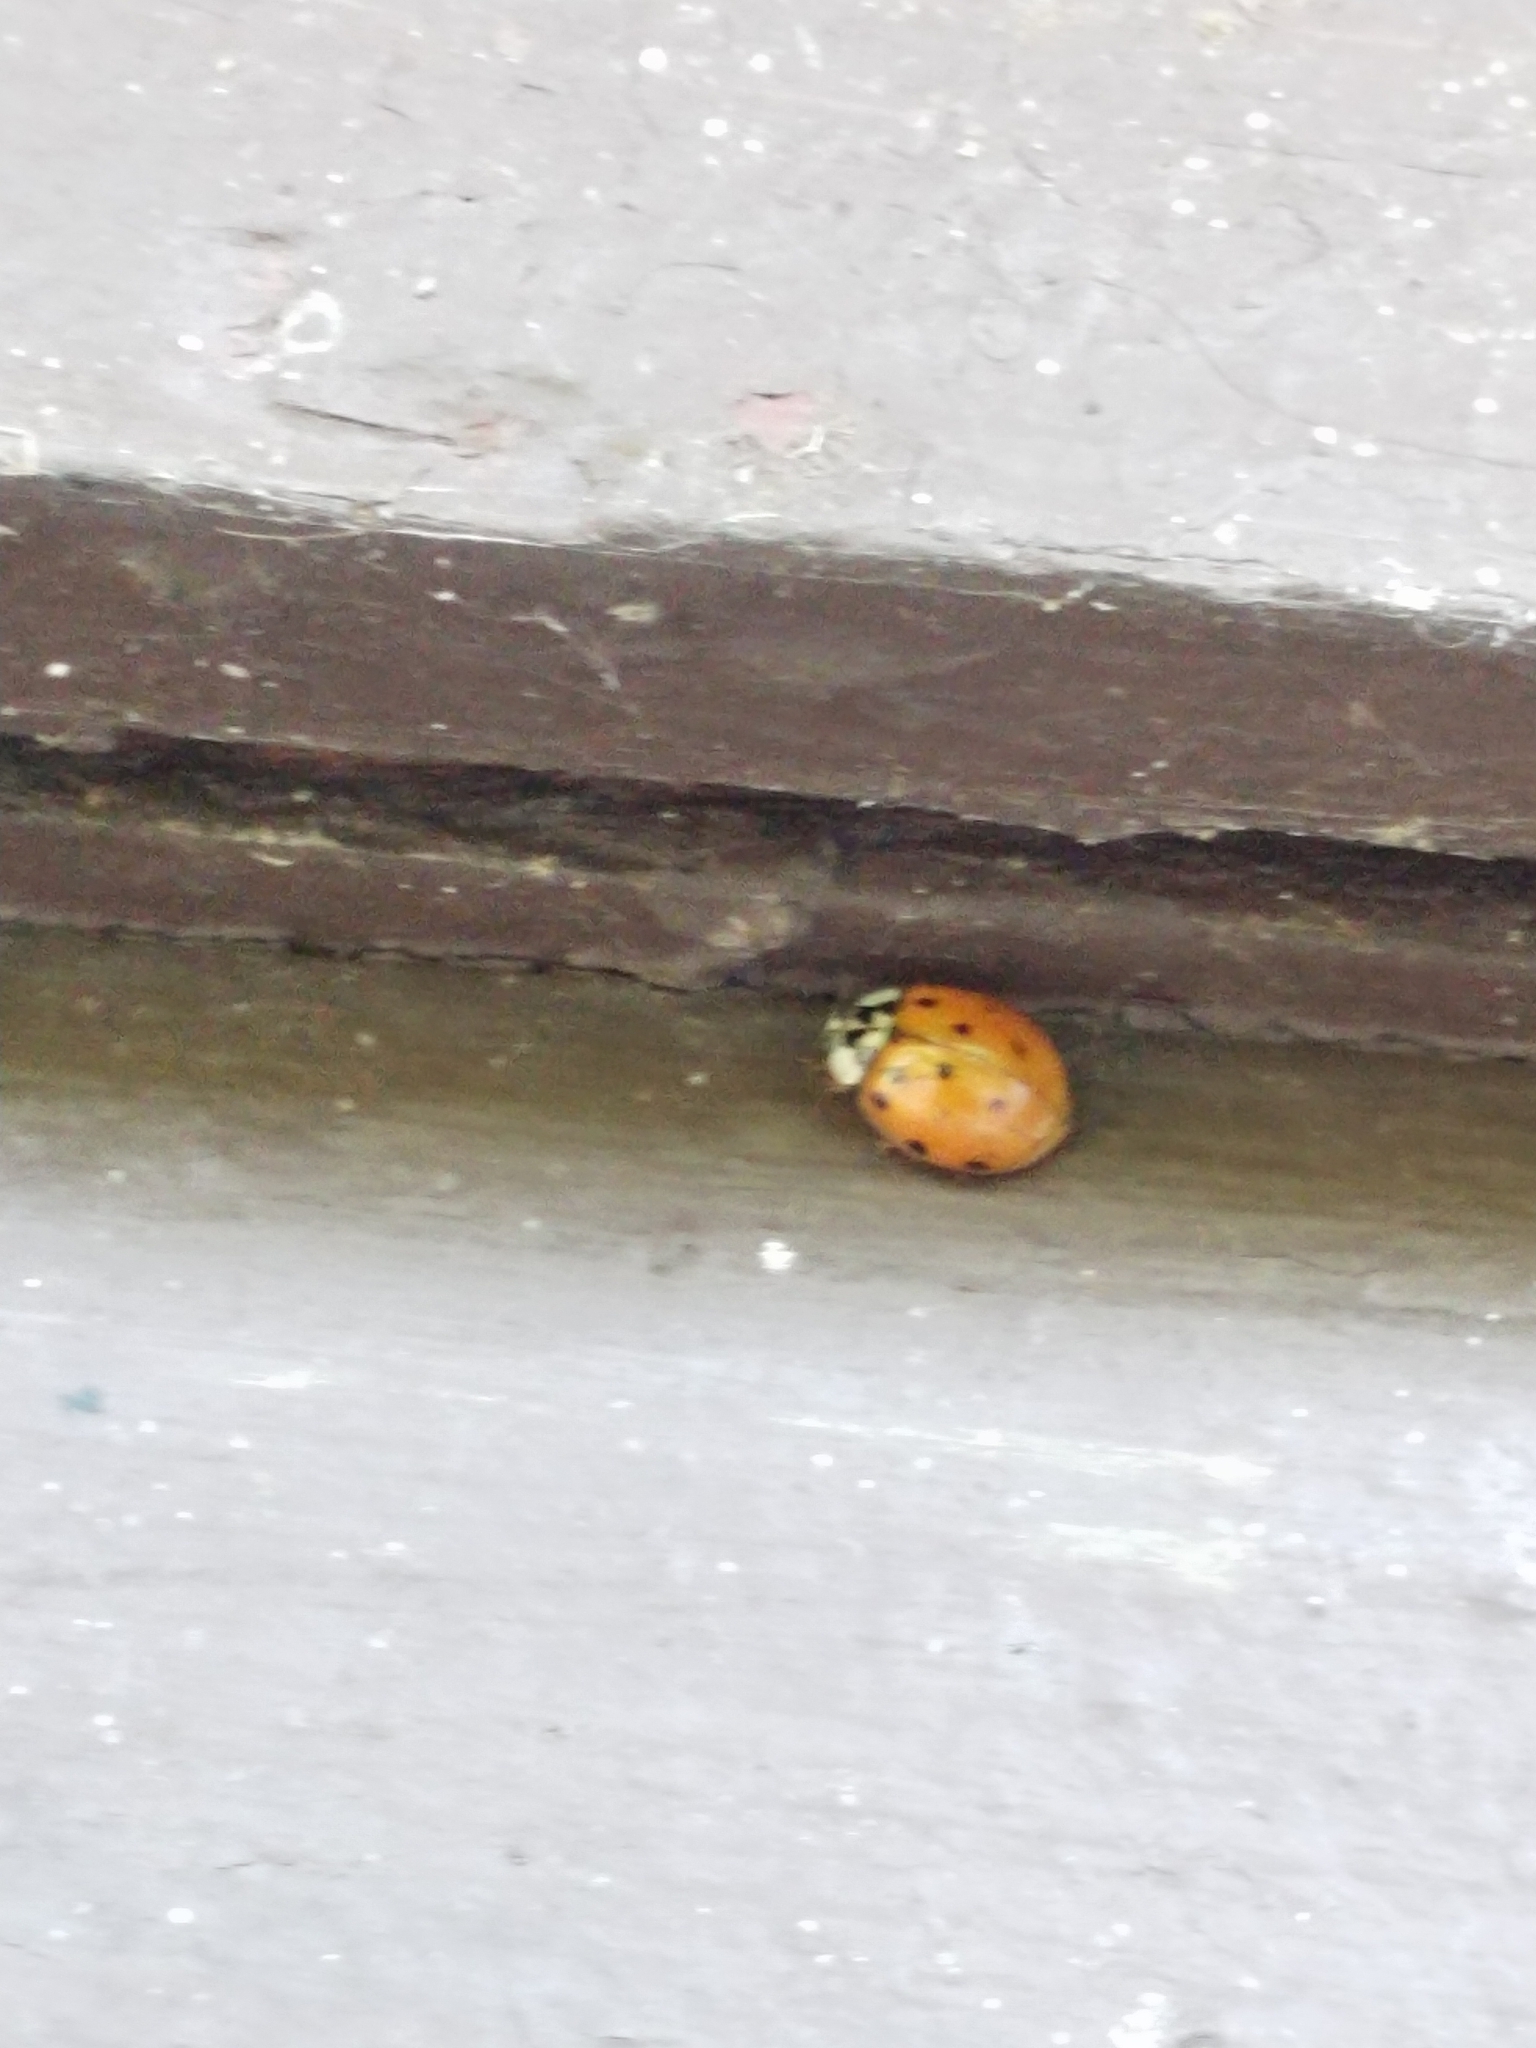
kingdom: Animalia
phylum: Arthropoda
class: Insecta
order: Coleoptera
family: Coccinellidae
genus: Harmonia
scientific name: Harmonia axyridis
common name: Harlequin ladybird
